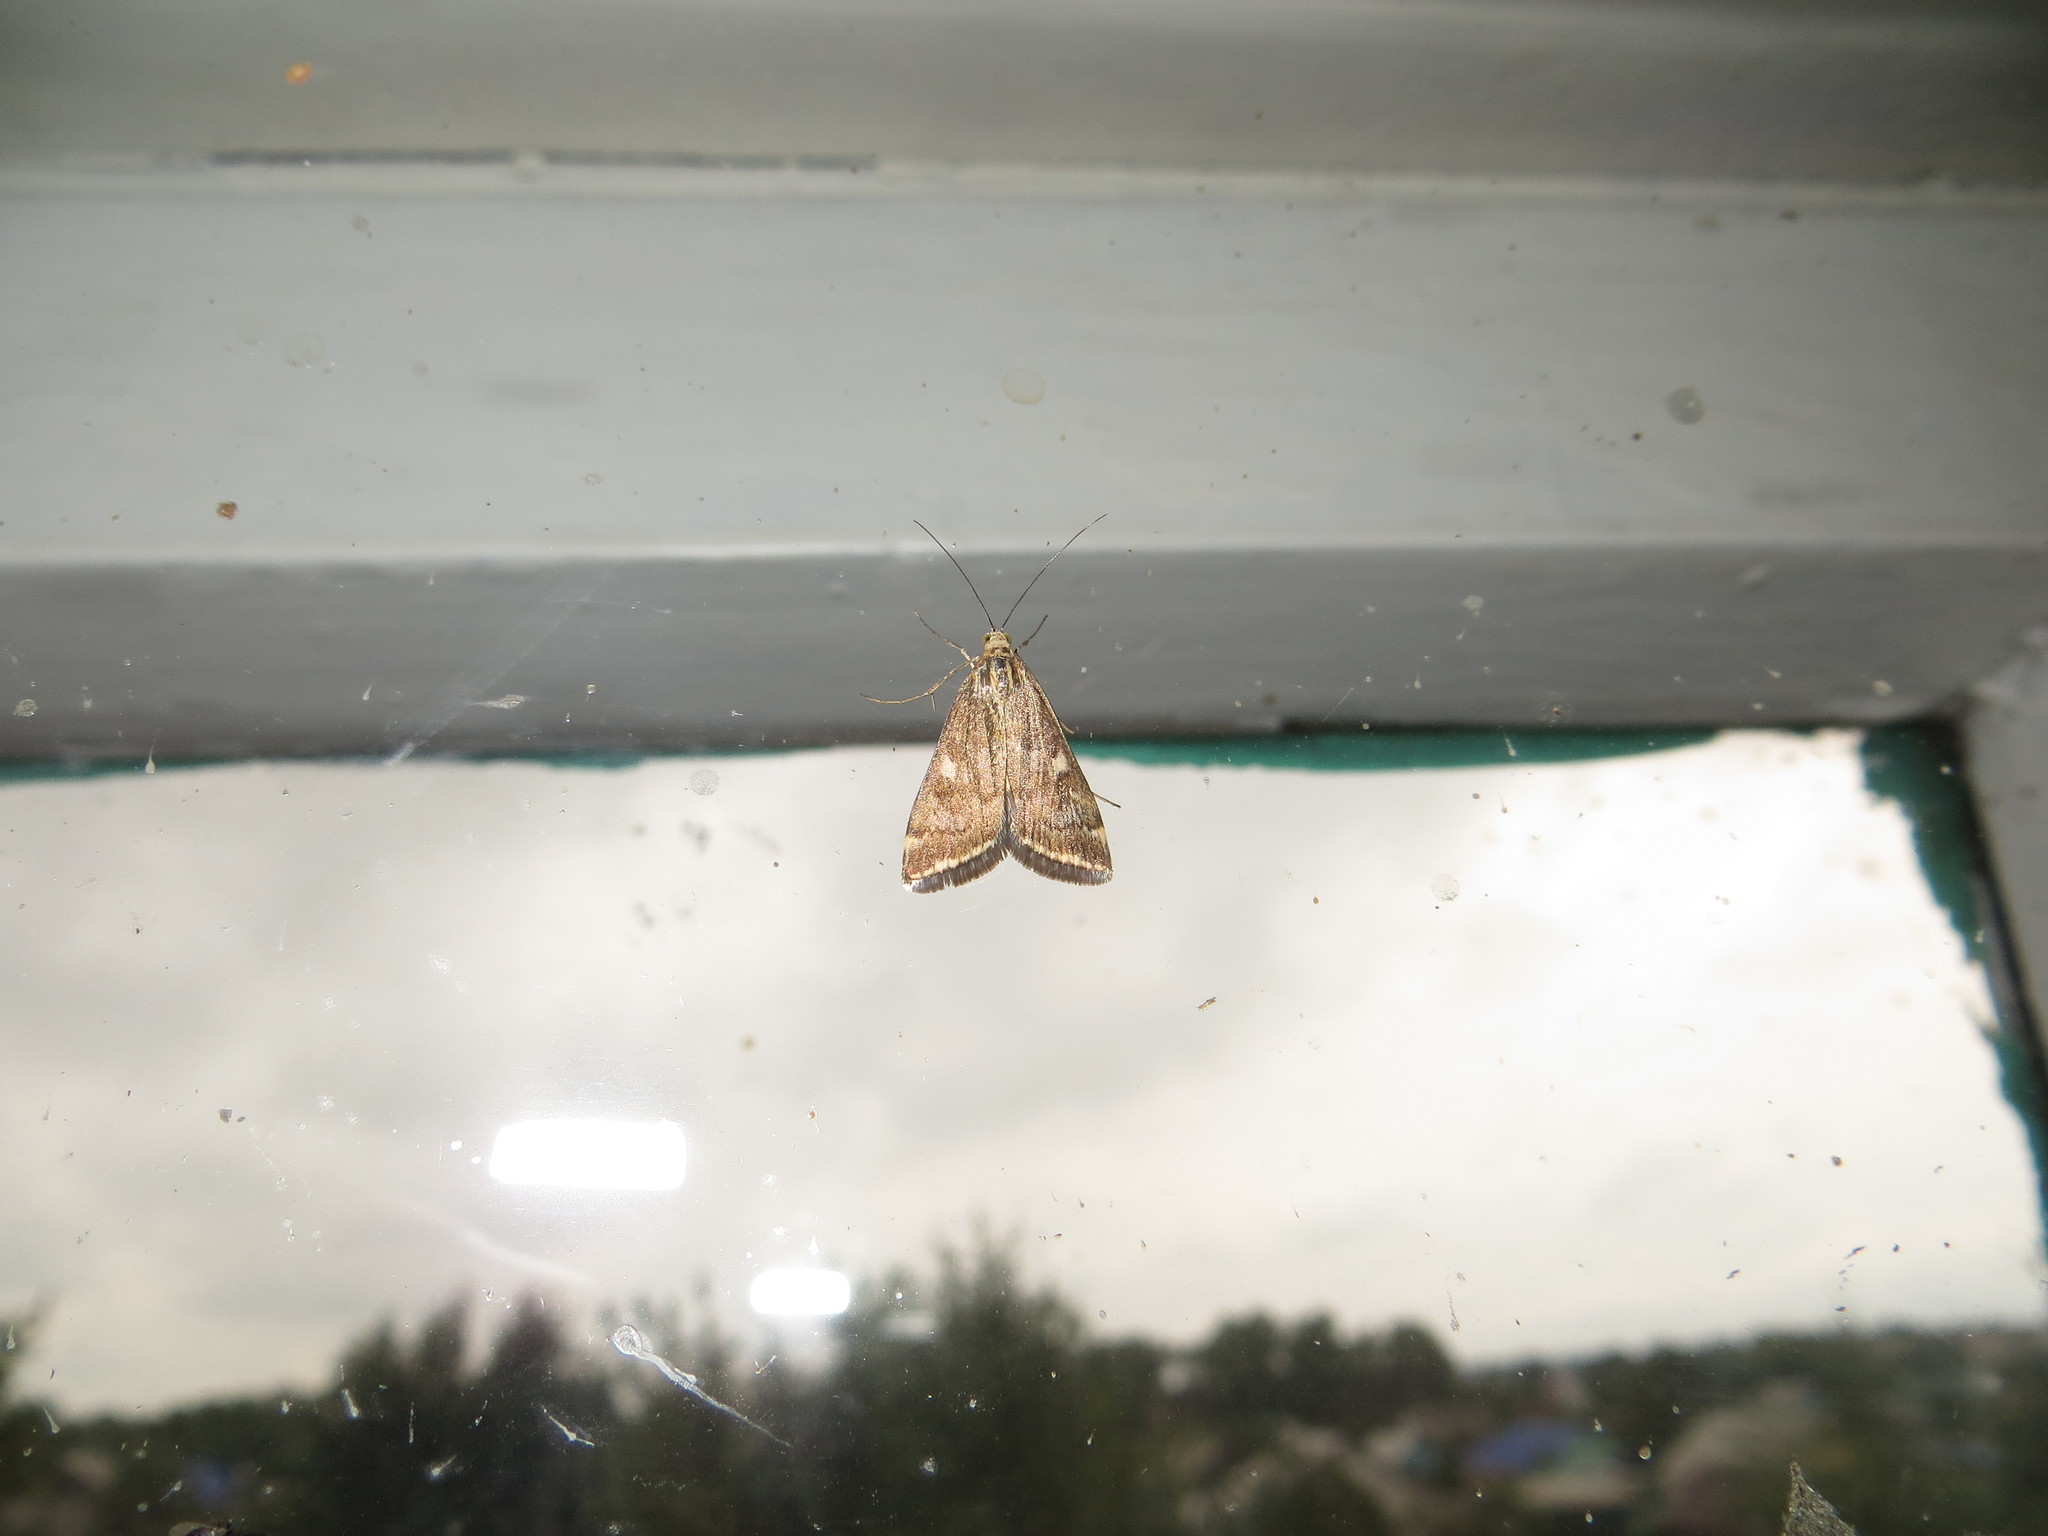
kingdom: Animalia
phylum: Arthropoda
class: Insecta
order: Lepidoptera
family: Crambidae
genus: Loxostege
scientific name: Loxostege sticticalis
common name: Crambid moth
